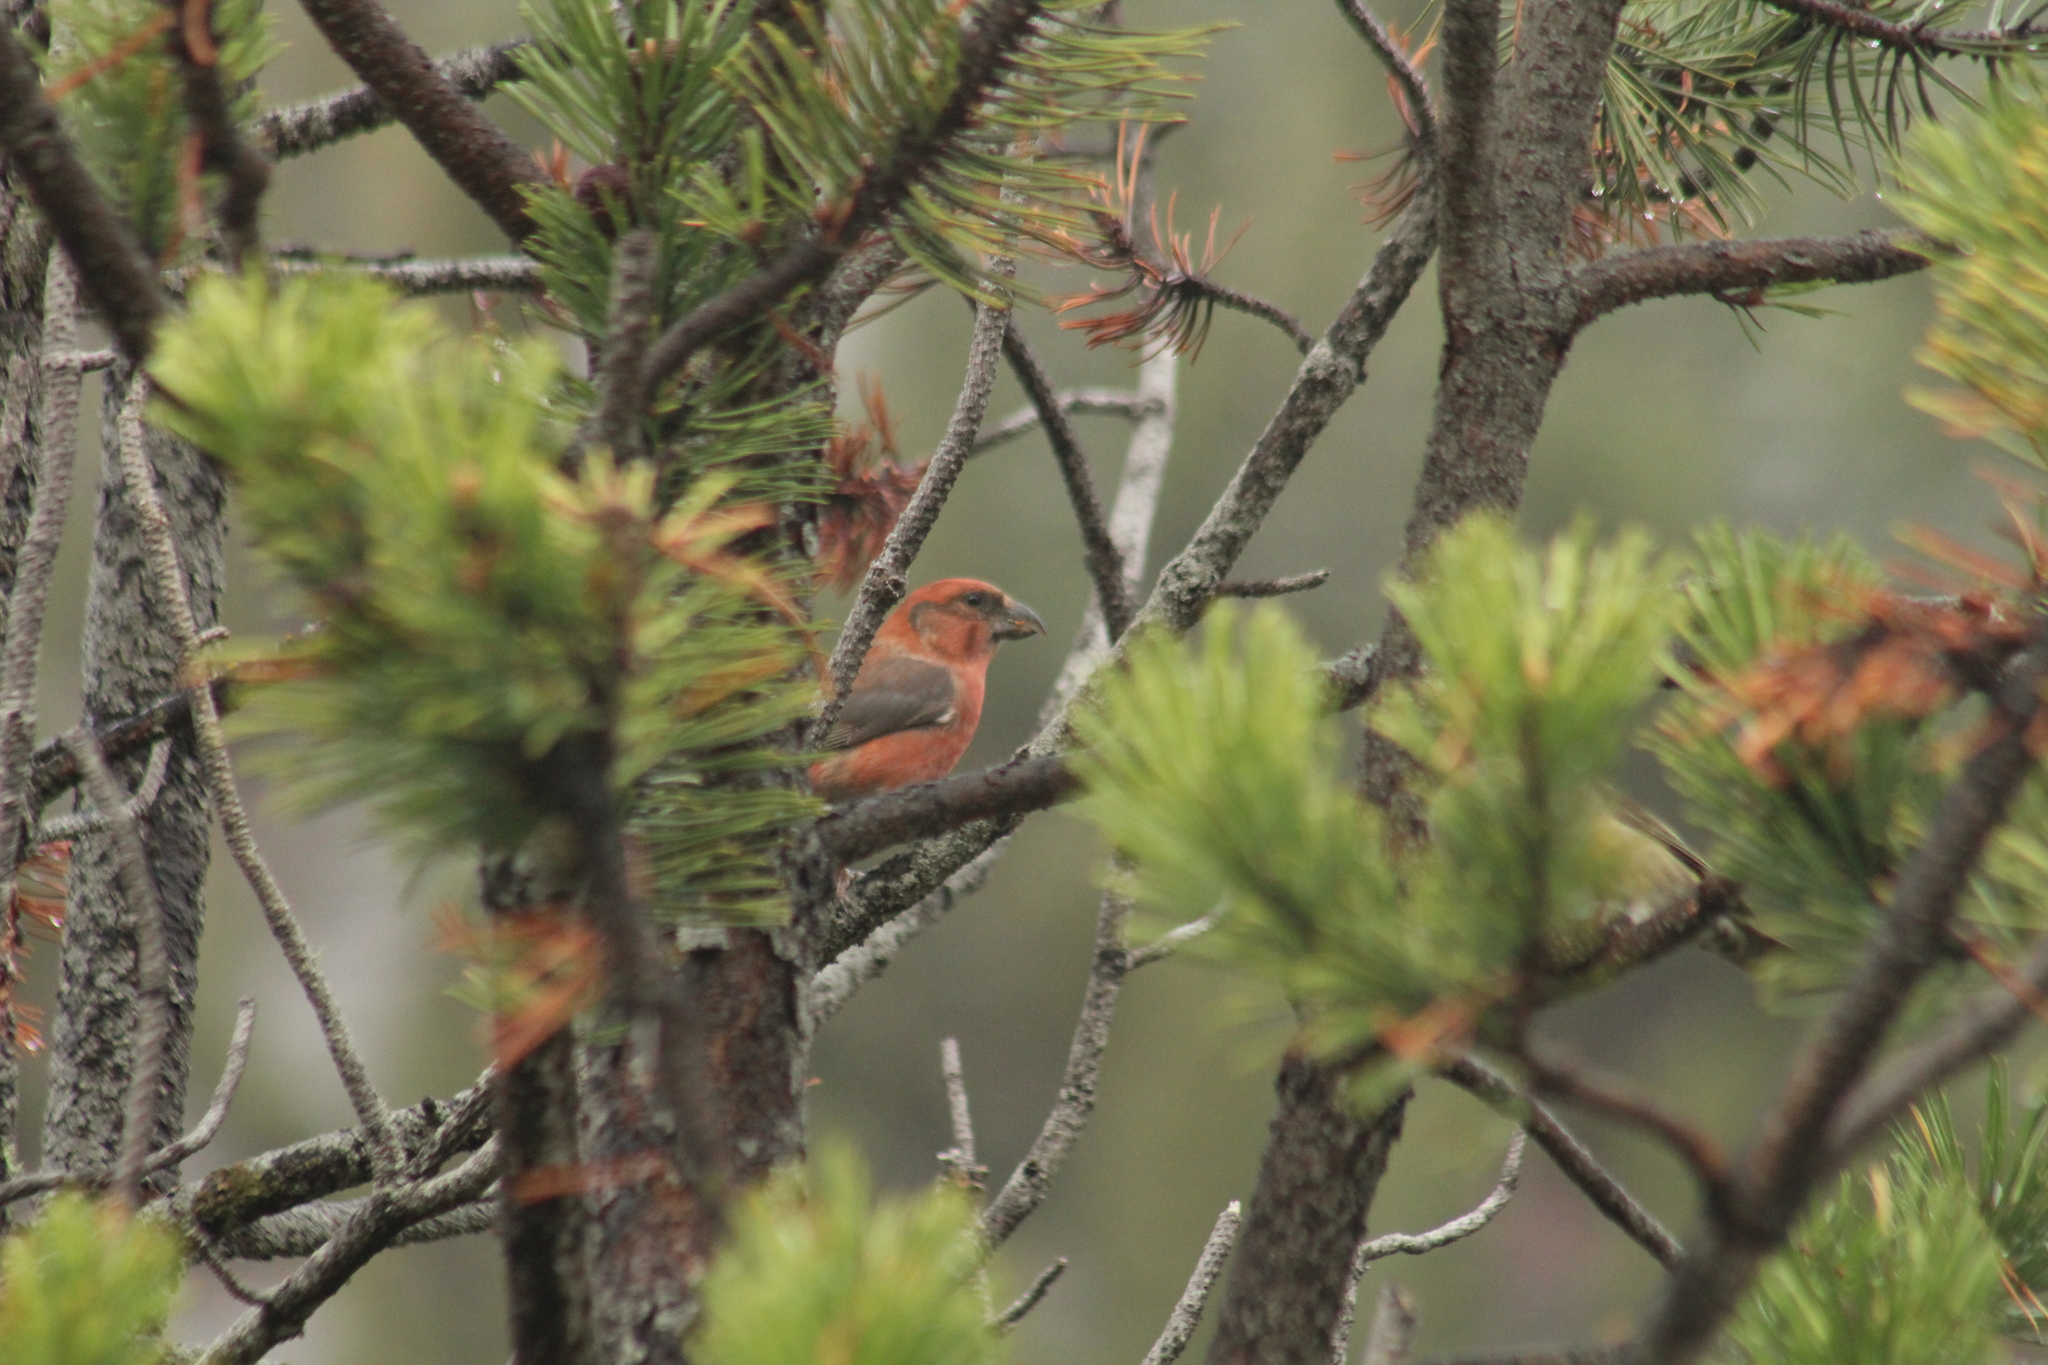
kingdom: Animalia
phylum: Chordata
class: Aves
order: Passeriformes
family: Fringillidae
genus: Loxia
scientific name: Loxia curvirostra
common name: Red crossbill
